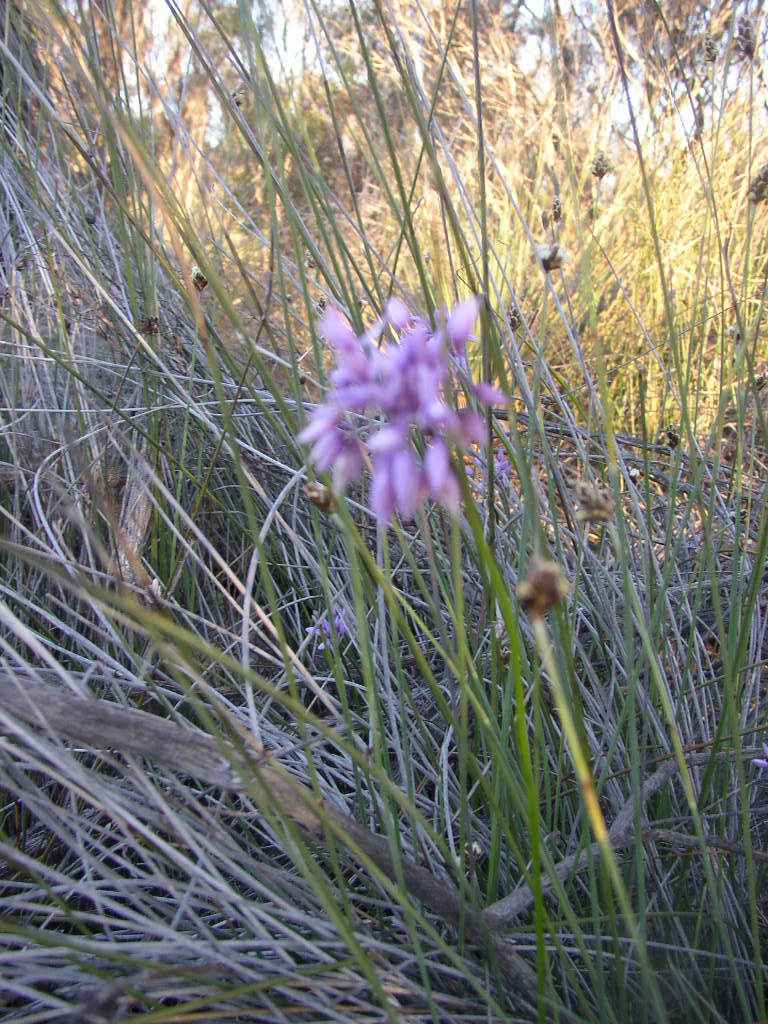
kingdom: Plantae
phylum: Tracheophyta
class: Liliopsida
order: Asparagales
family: Asparagaceae
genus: Sowerbaea
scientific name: Sowerbaea laxiflora
